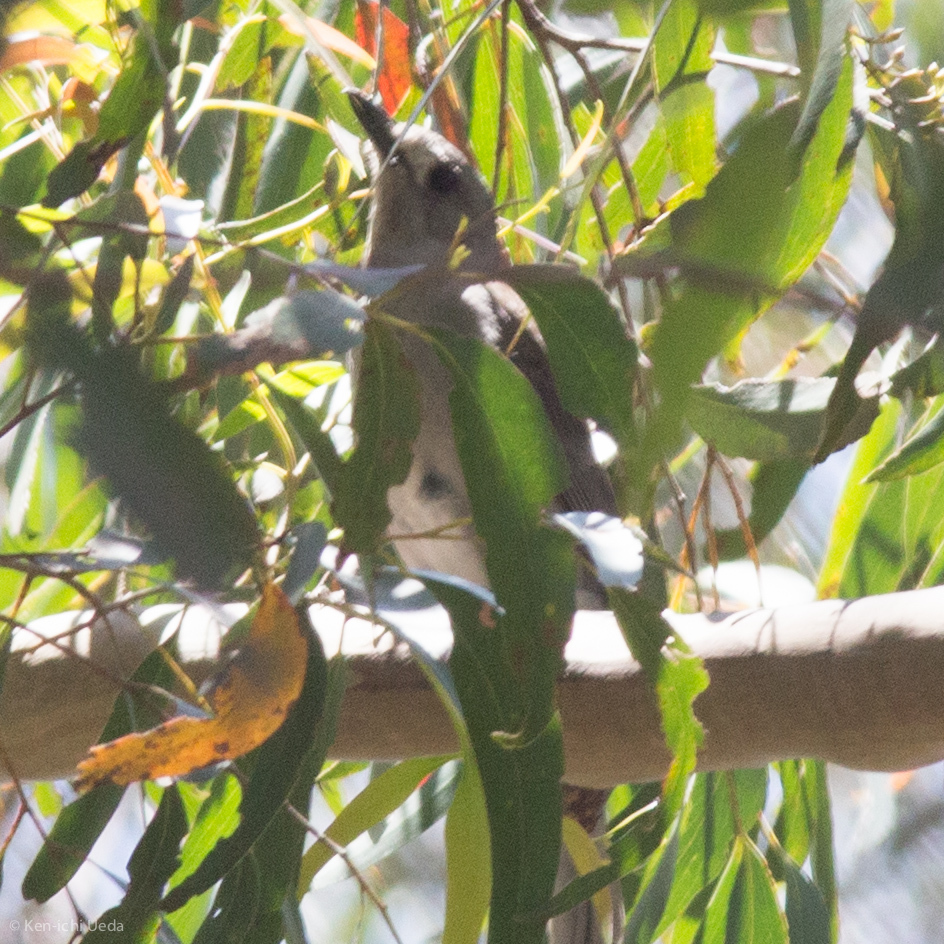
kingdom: Animalia
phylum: Chordata
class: Aves
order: Passeriformes
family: Pachycephalidae
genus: Colluricincla
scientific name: Colluricincla harmonica
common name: Grey shrikethrush
